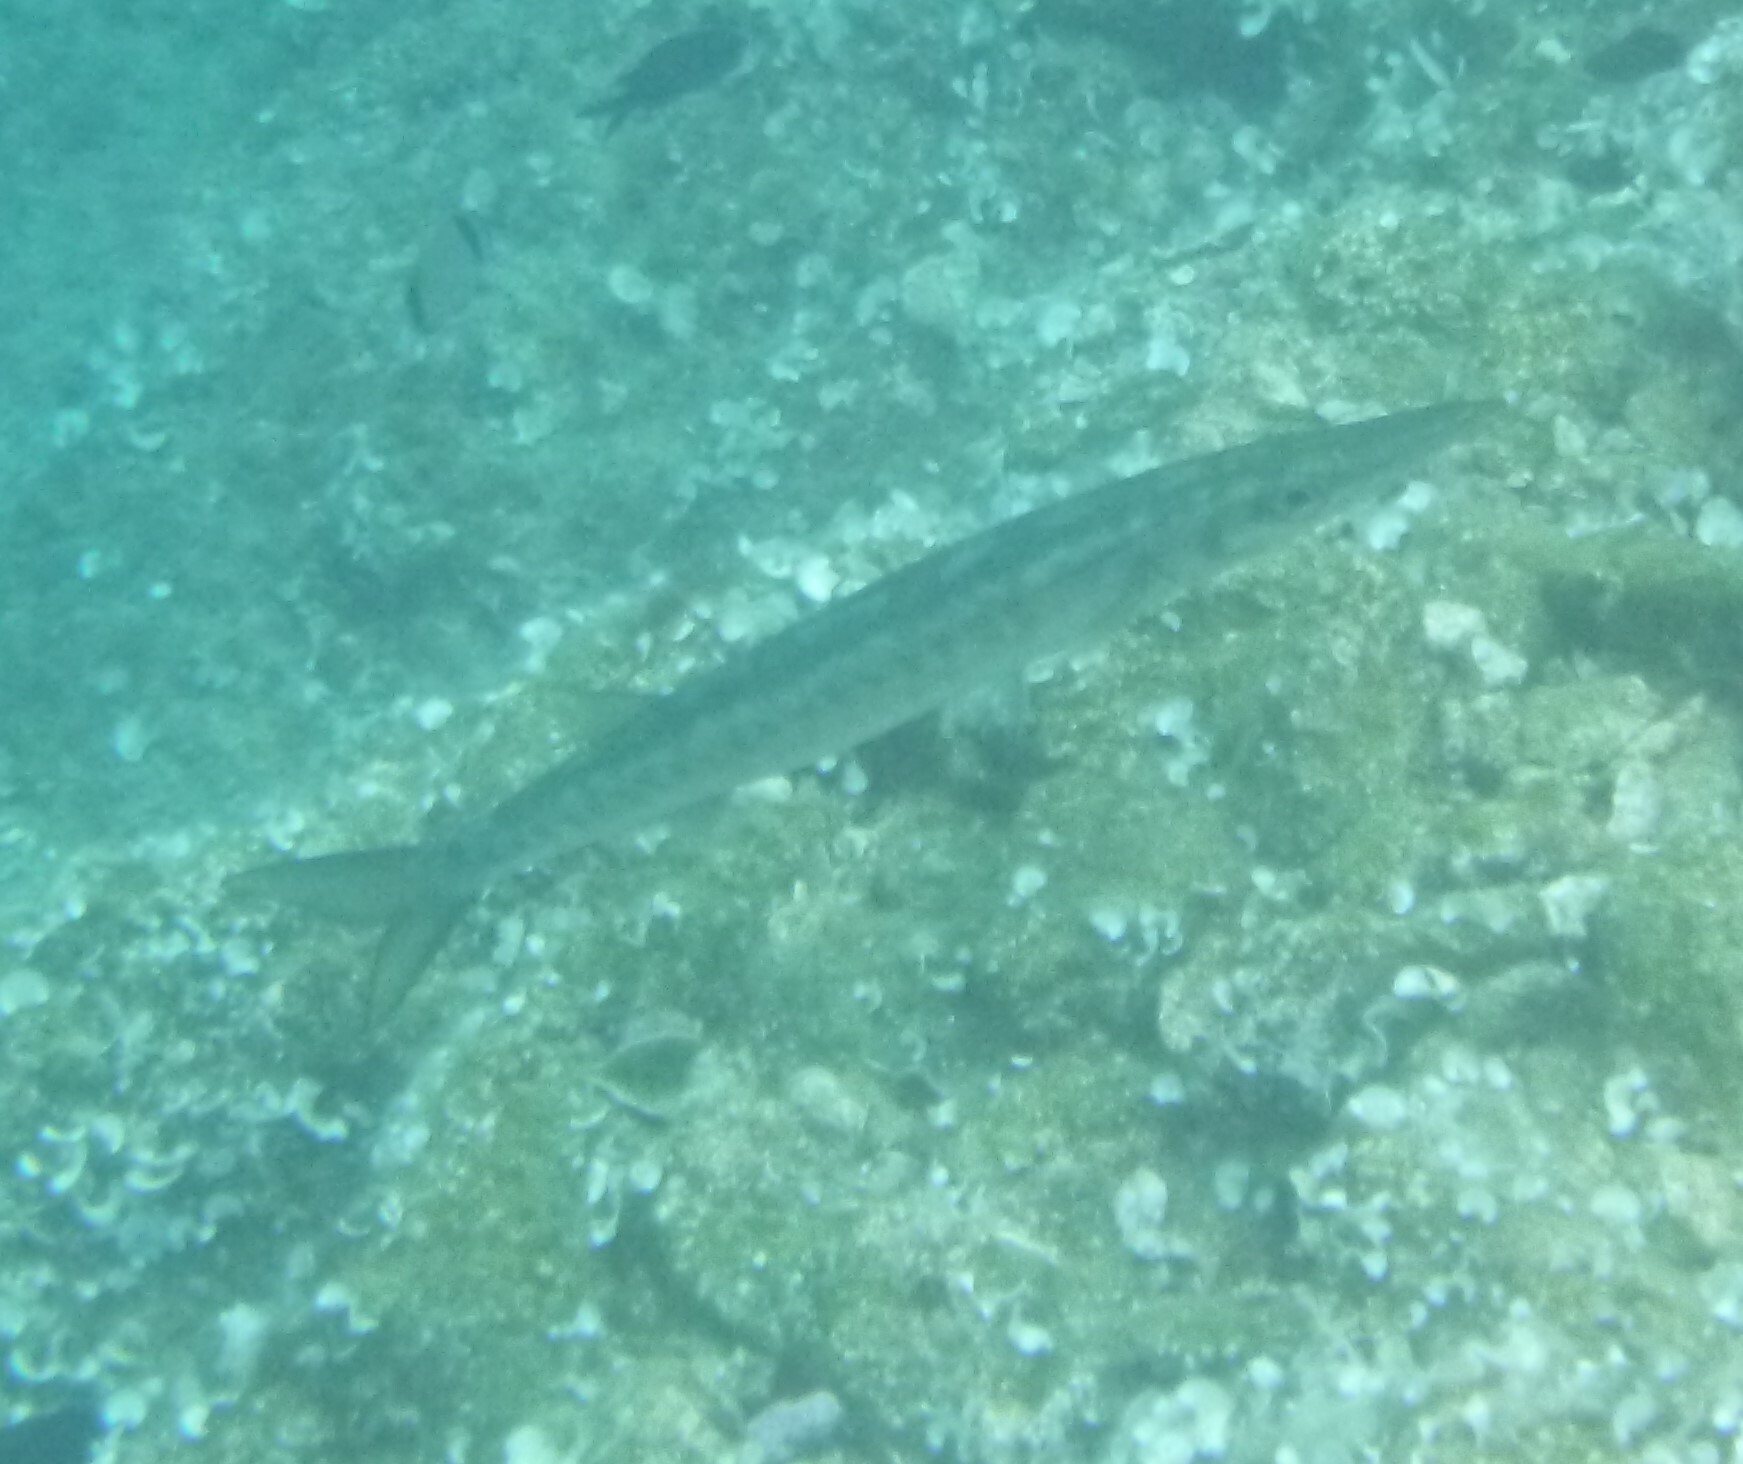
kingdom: Animalia
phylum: Chordata
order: Perciformes
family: Sphyraenidae
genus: Sphyraena
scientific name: Sphyraena
